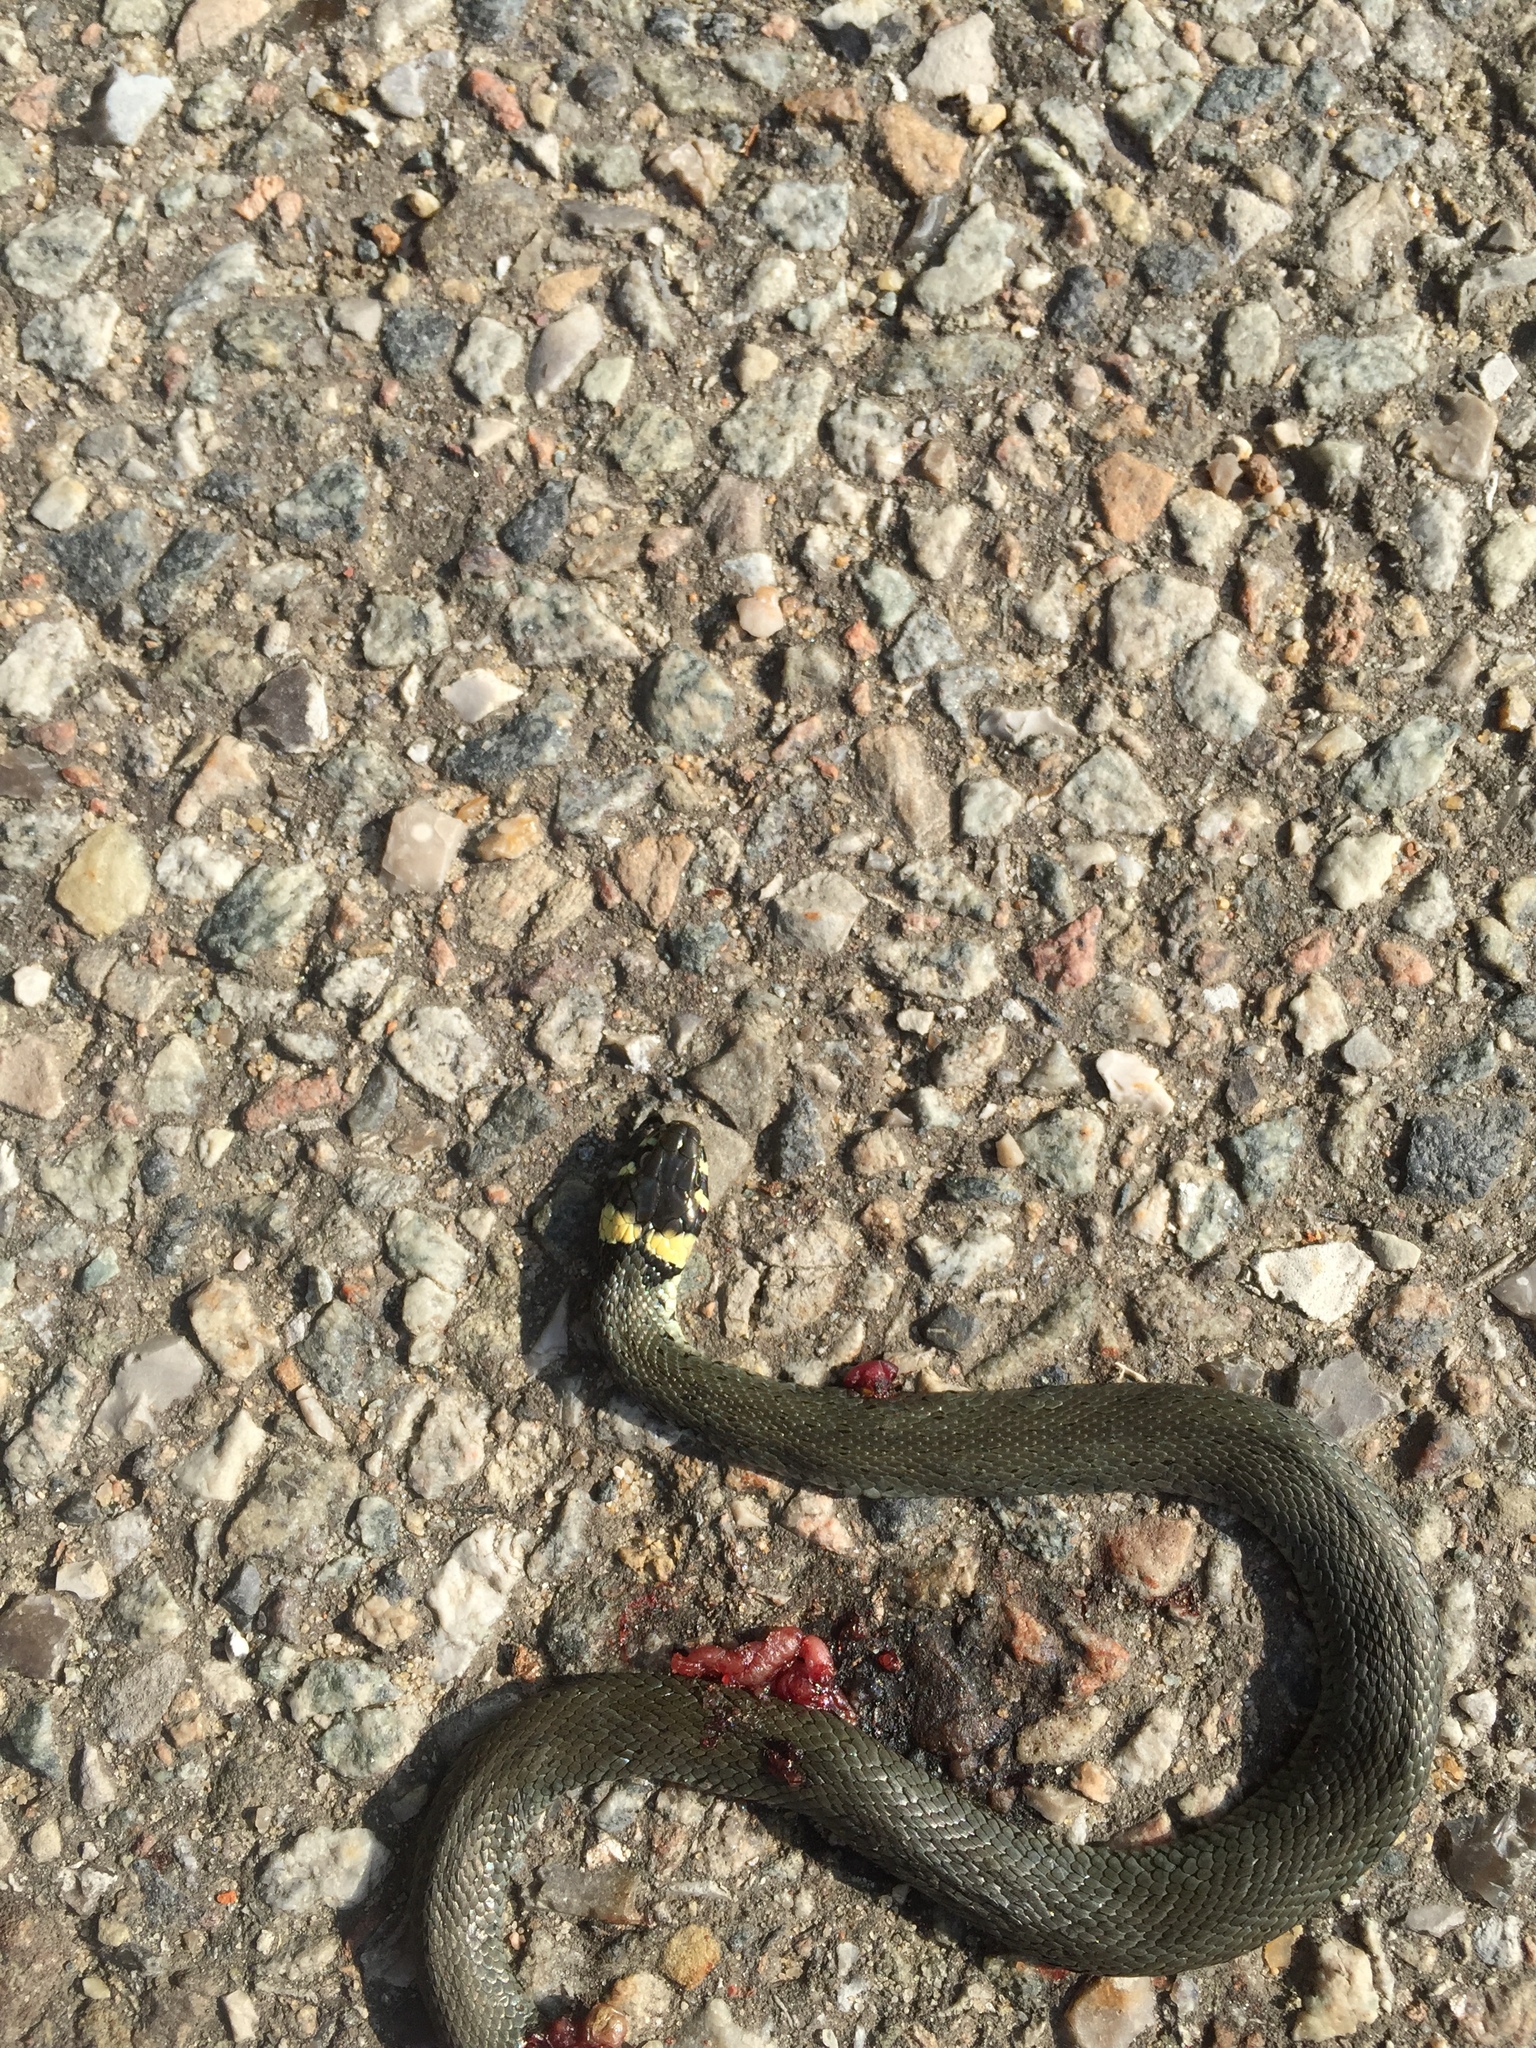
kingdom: Animalia
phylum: Chordata
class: Squamata
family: Colubridae
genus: Natrix
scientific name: Natrix natrix
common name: Grass snake
